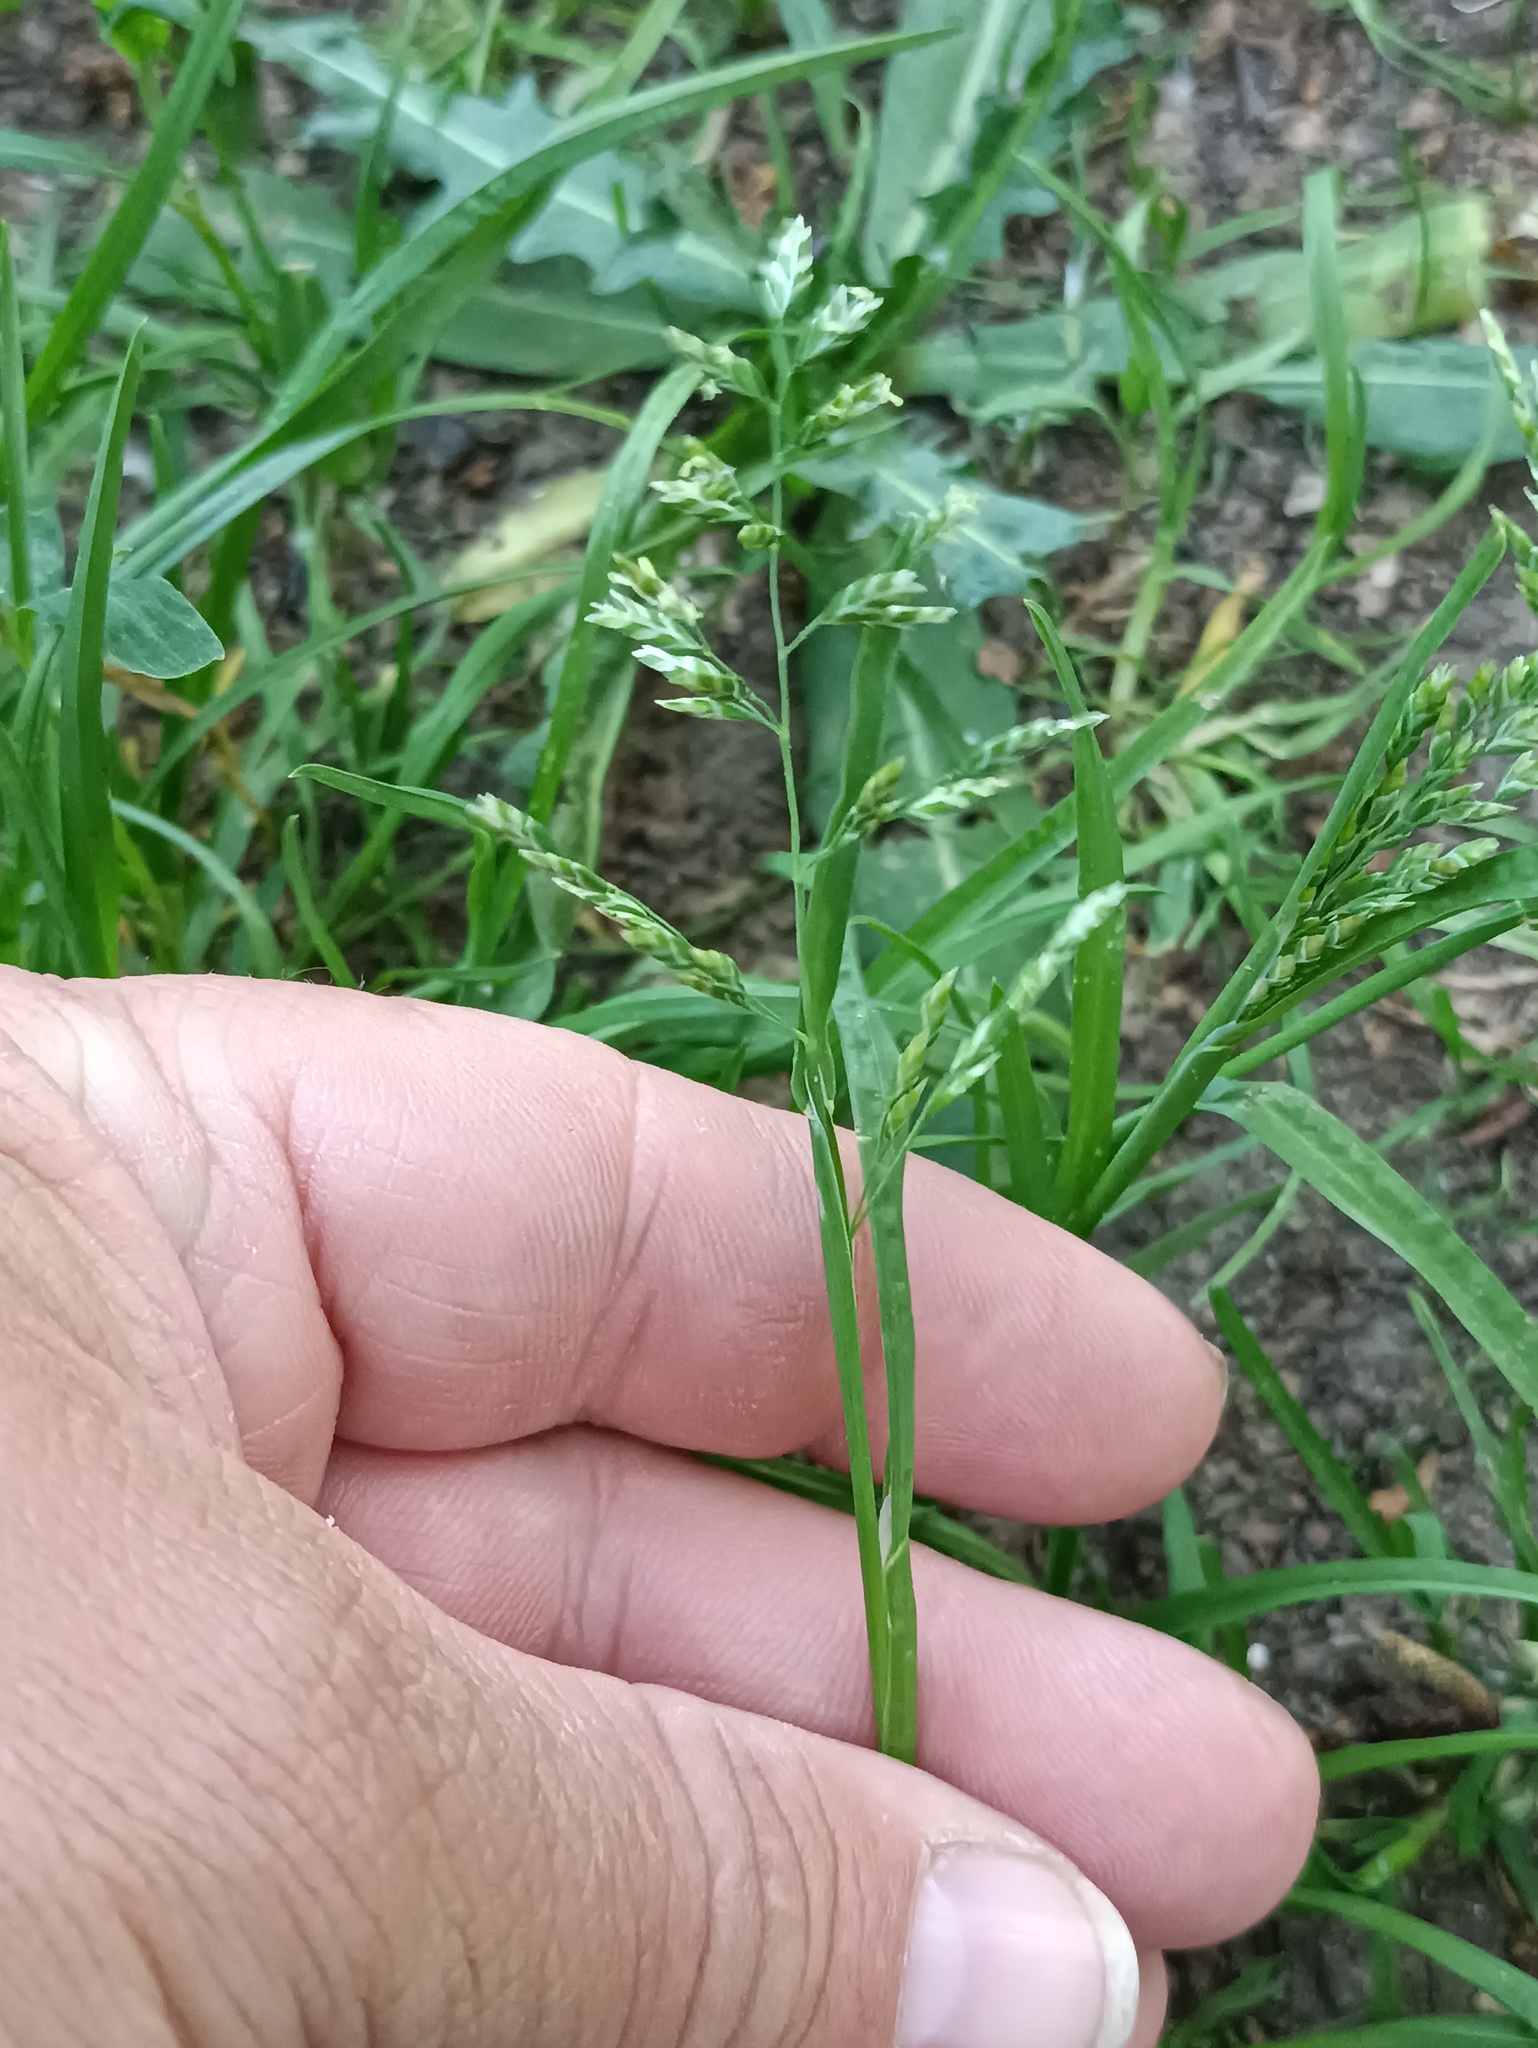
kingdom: Plantae
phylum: Tracheophyta
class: Liliopsida
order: Poales
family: Poaceae
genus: Poa
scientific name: Poa annua
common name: Annual bluegrass
